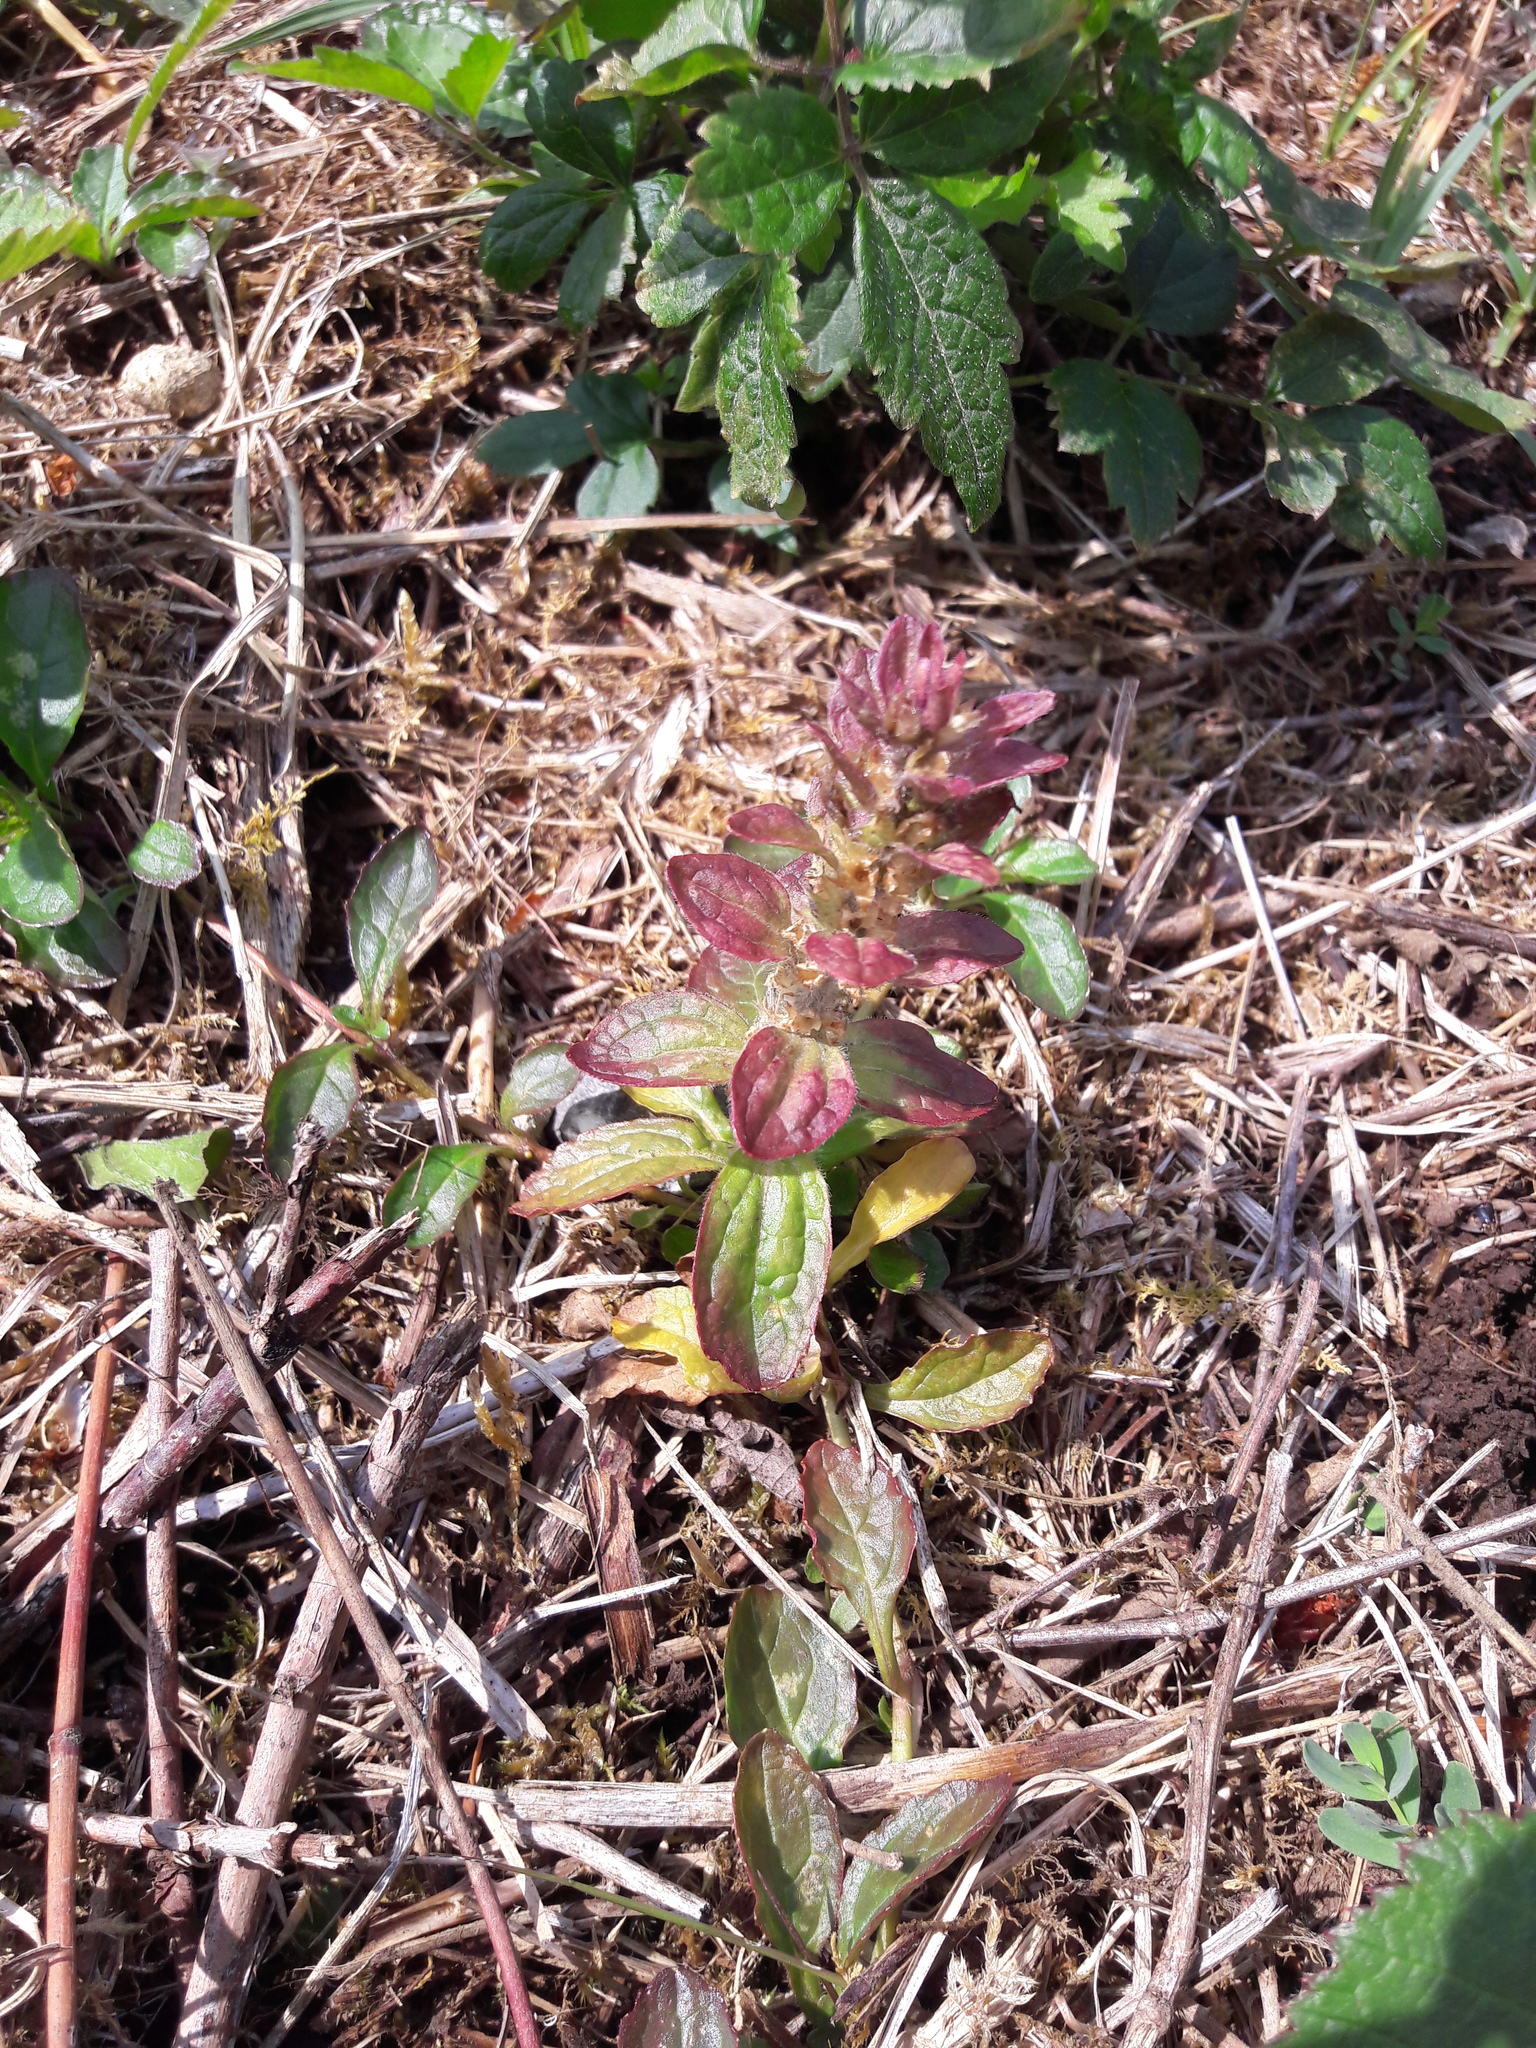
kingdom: Plantae
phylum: Tracheophyta
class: Magnoliopsida
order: Lamiales
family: Lamiaceae
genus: Ajuga
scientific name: Ajuga reptans
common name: Bugle
